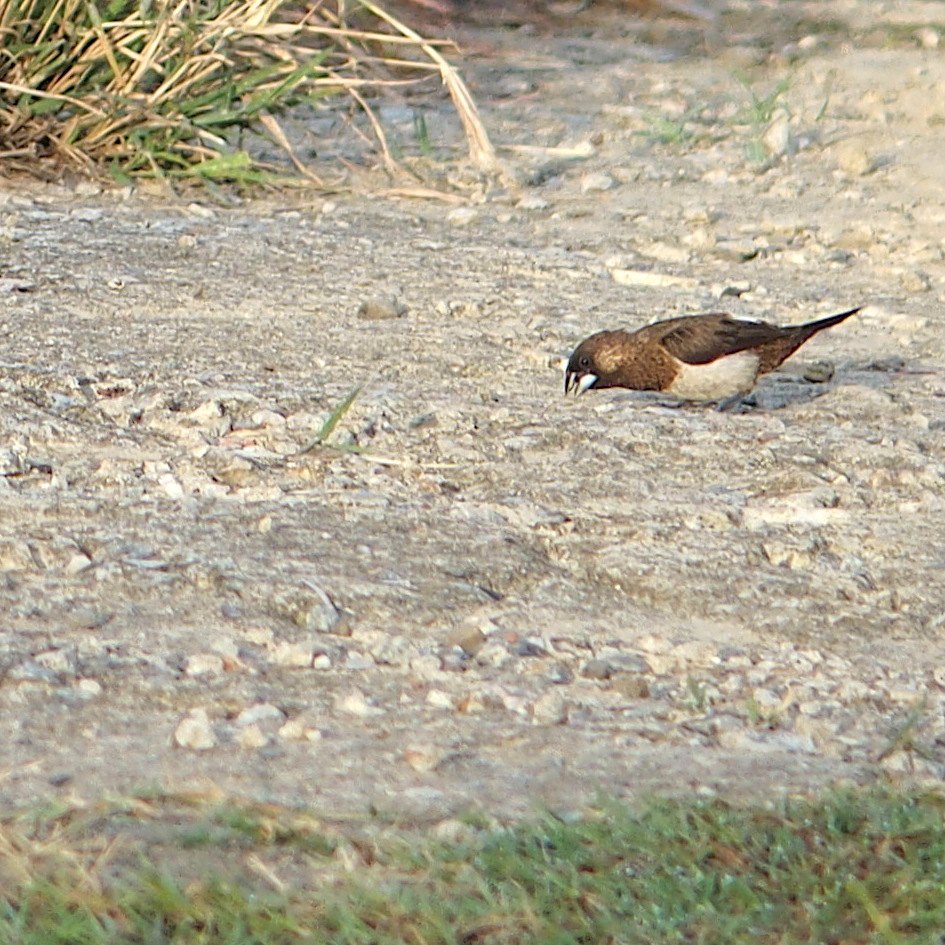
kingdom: Animalia
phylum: Chordata
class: Aves
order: Passeriformes
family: Estrildidae
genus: Lonchura
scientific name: Lonchura striata
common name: White-rumped munia
